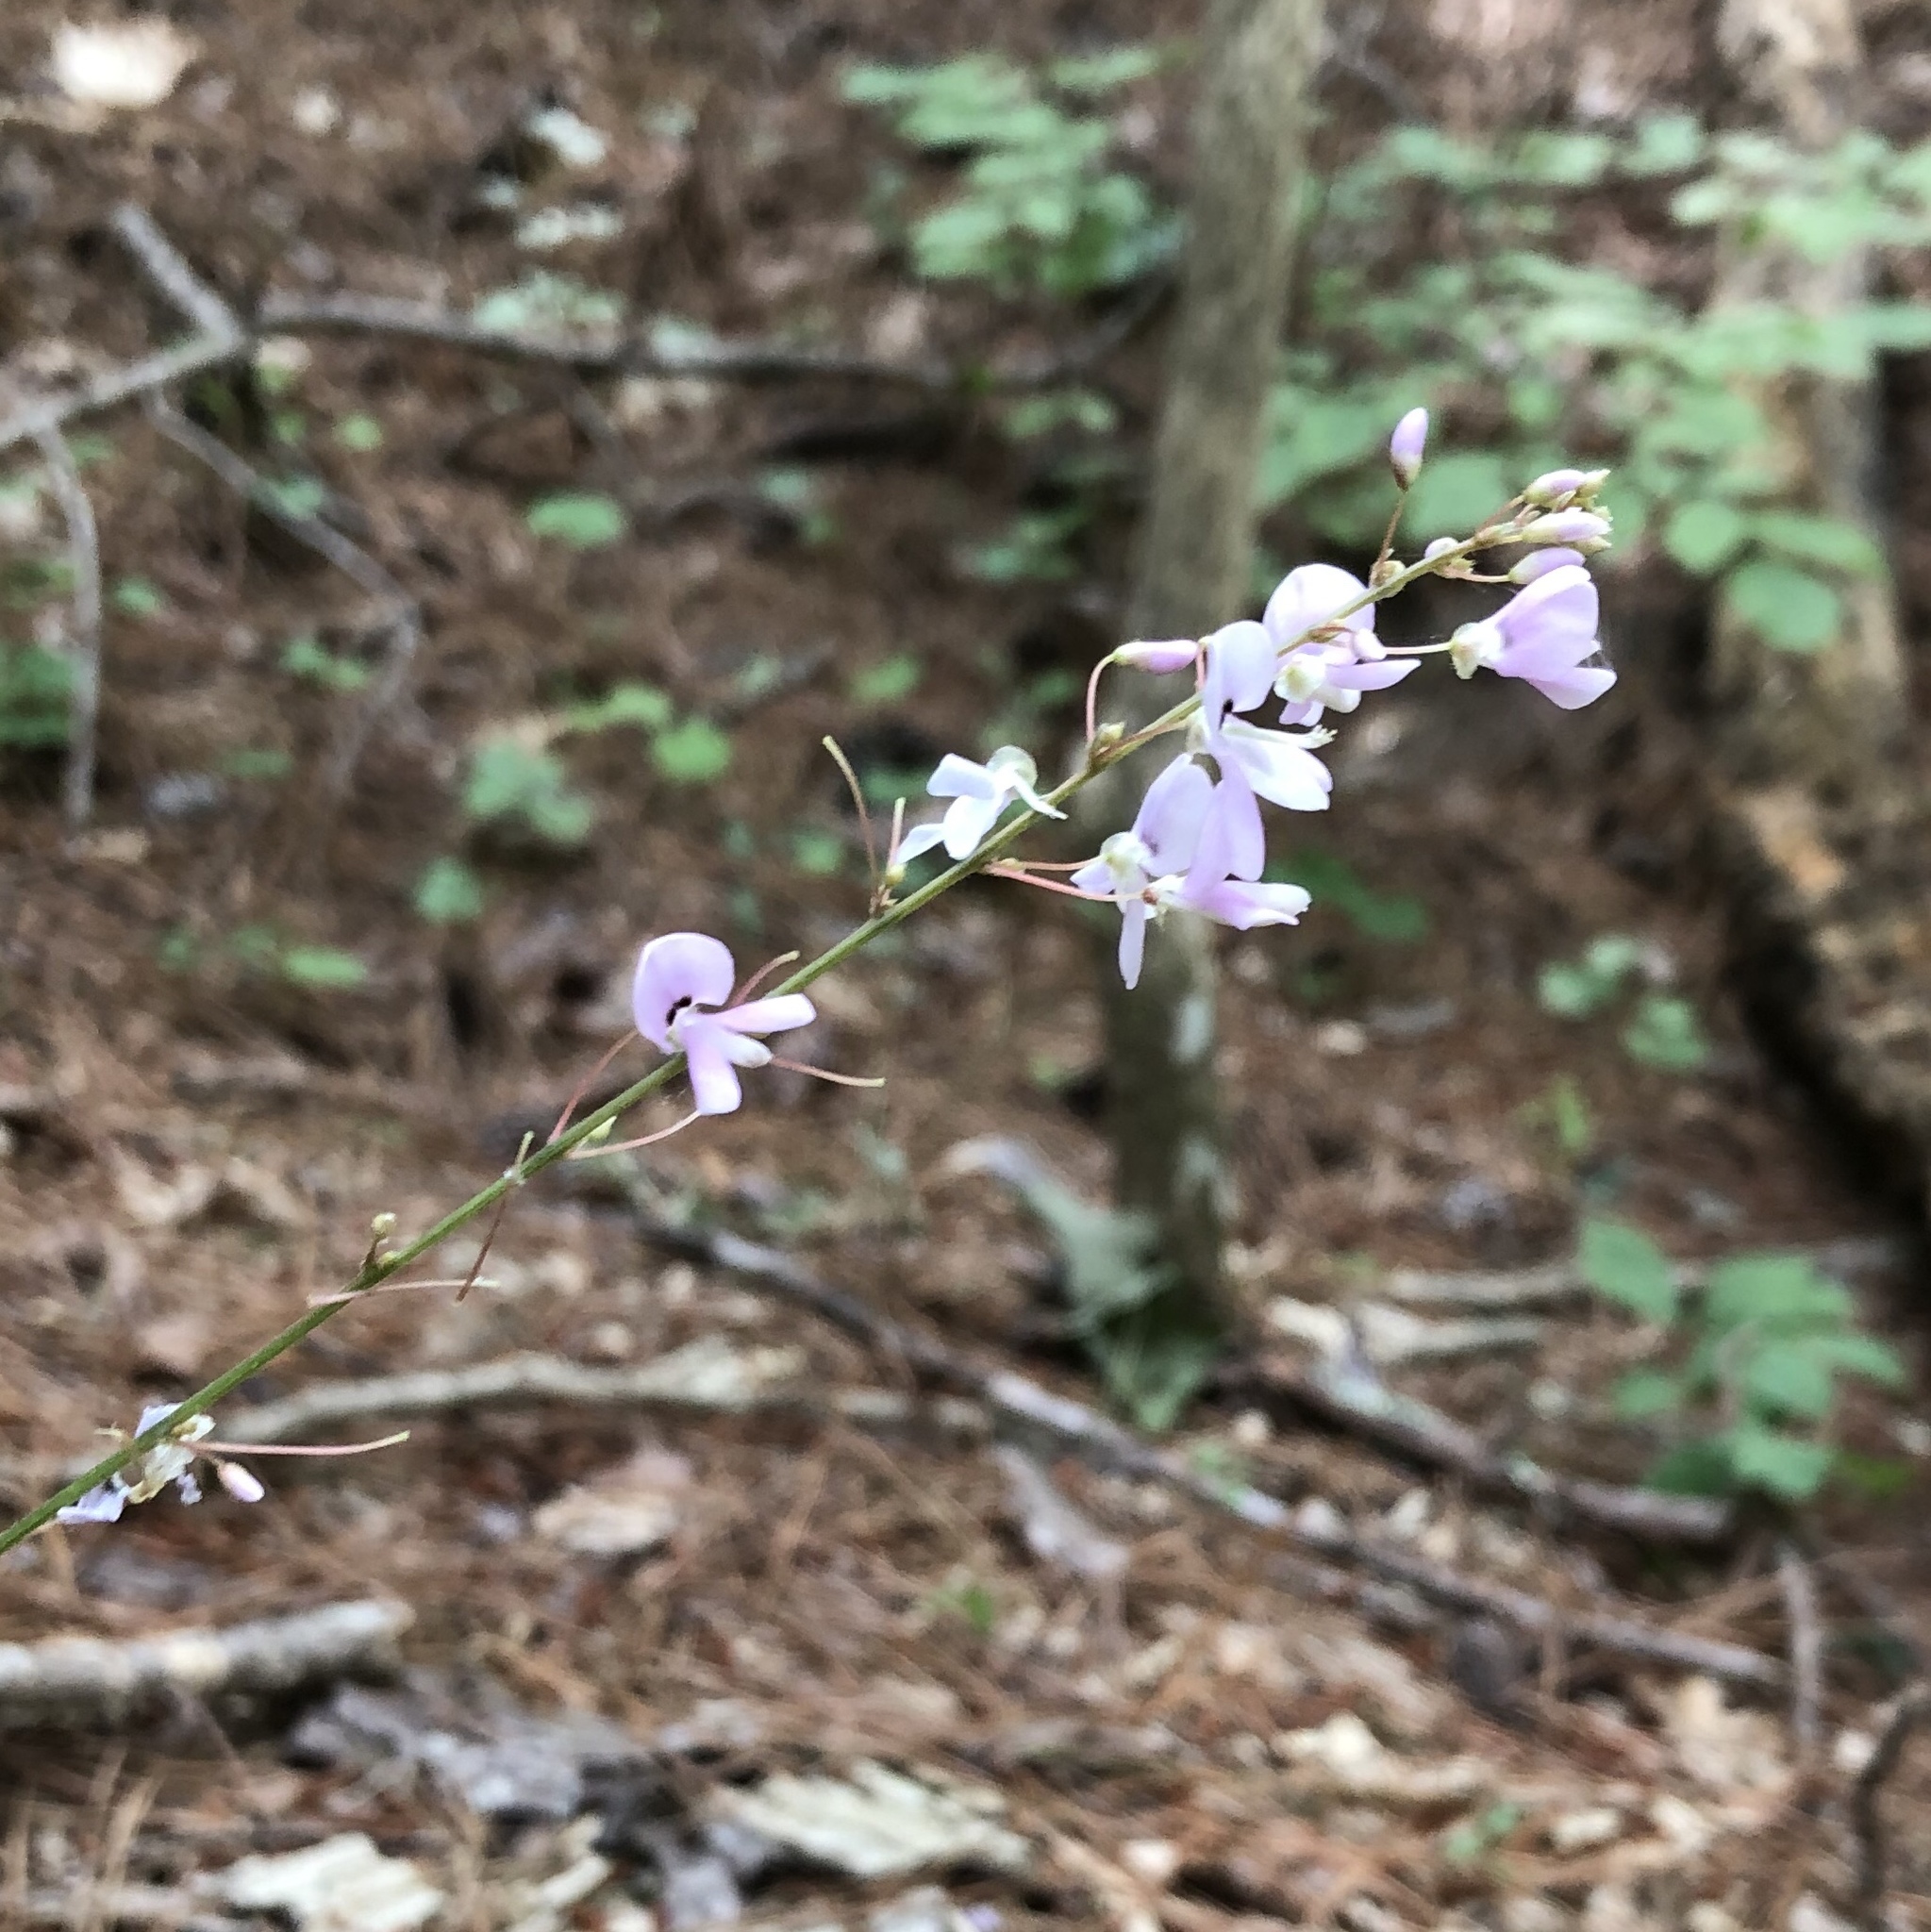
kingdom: Plantae
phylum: Tracheophyta
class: Magnoliopsida
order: Fabales
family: Fabaceae
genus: Hylodesmum
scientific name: Hylodesmum nudiflorum
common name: Bare-stemmed tick-trefoil
